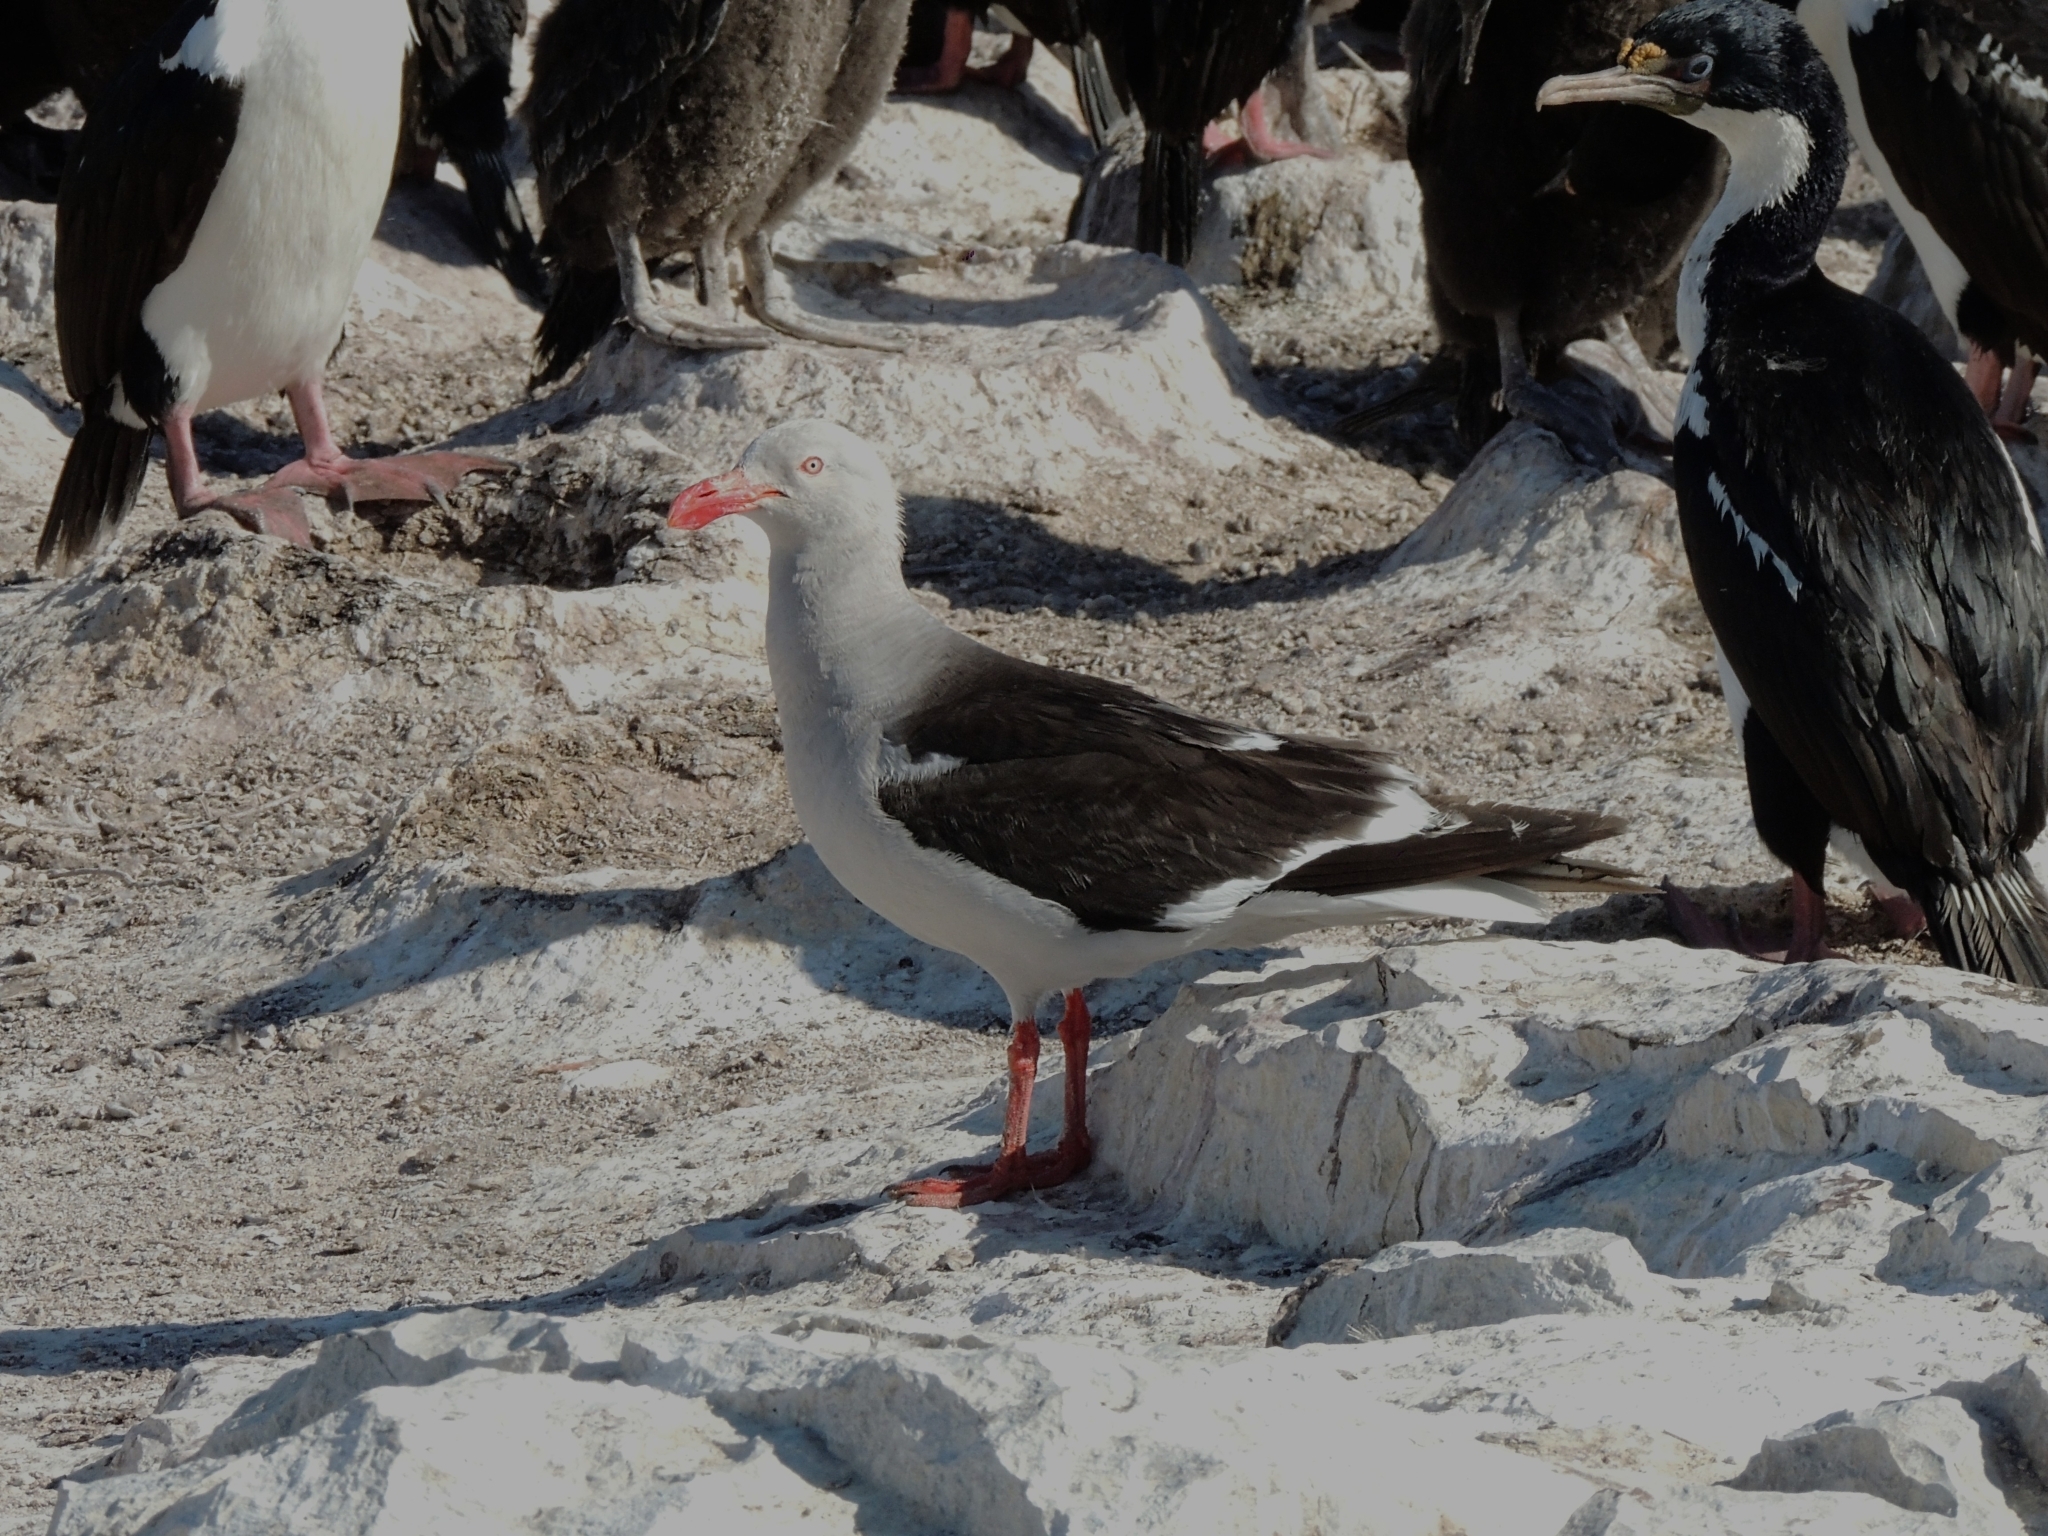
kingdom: Animalia
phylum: Chordata
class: Aves
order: Charadriiformes
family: Laridae
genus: Leucophaeus
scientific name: Leucophaeus scoresbii
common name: Dolphin gull
